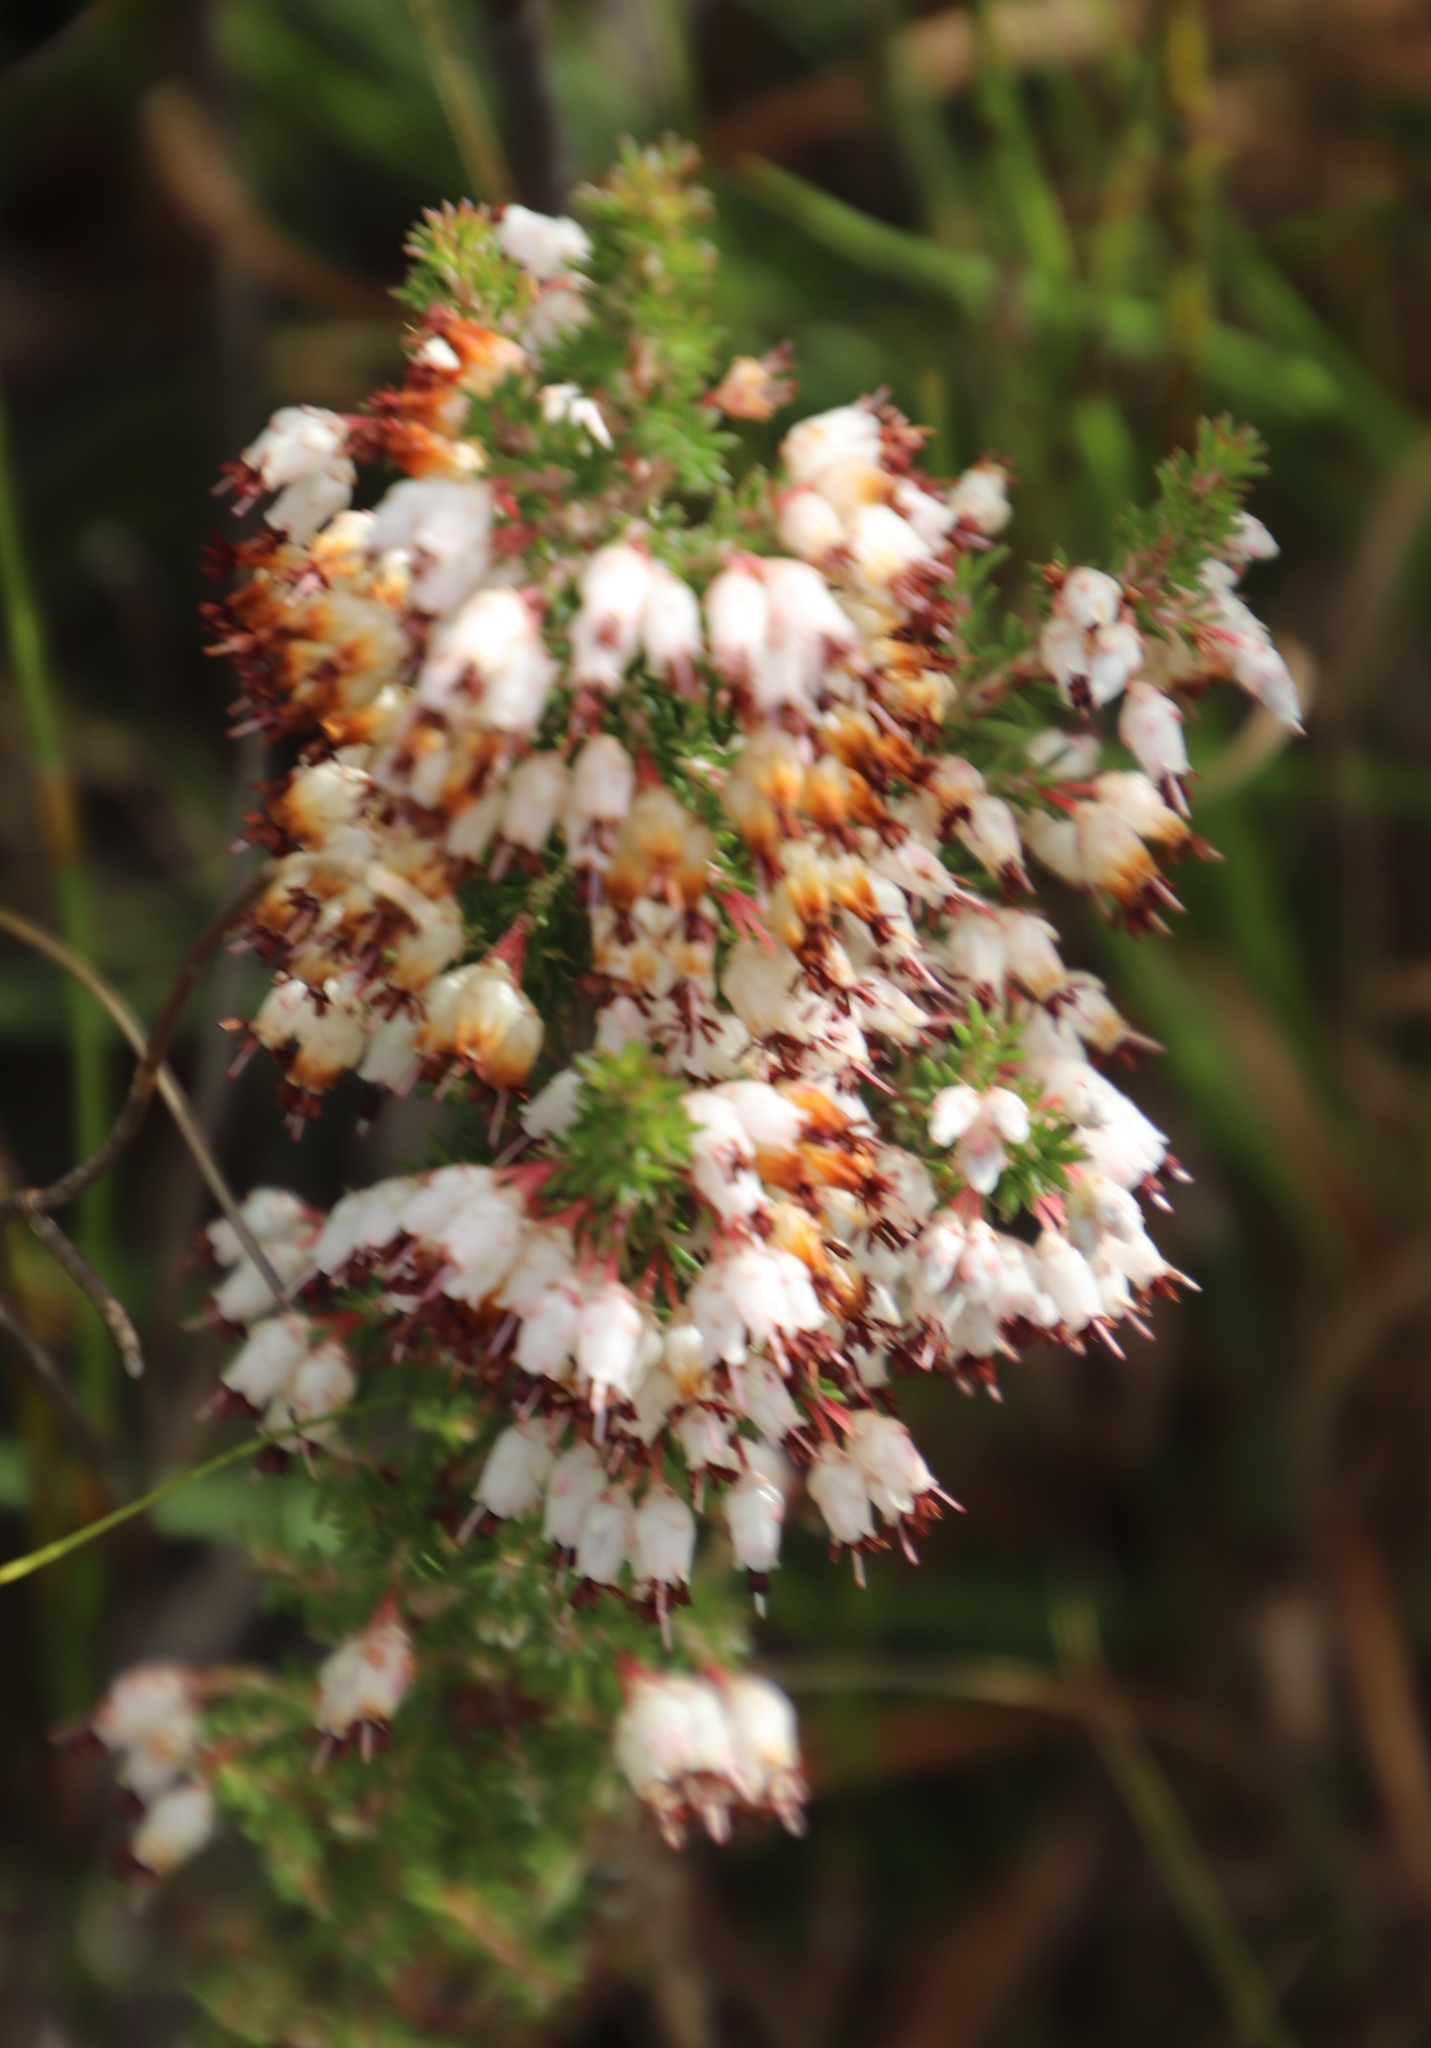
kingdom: Plantae
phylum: Tracheophyta
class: Magnoliopsida
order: Ericales
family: Ericaceae
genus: Erica
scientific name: Erica desmantha
